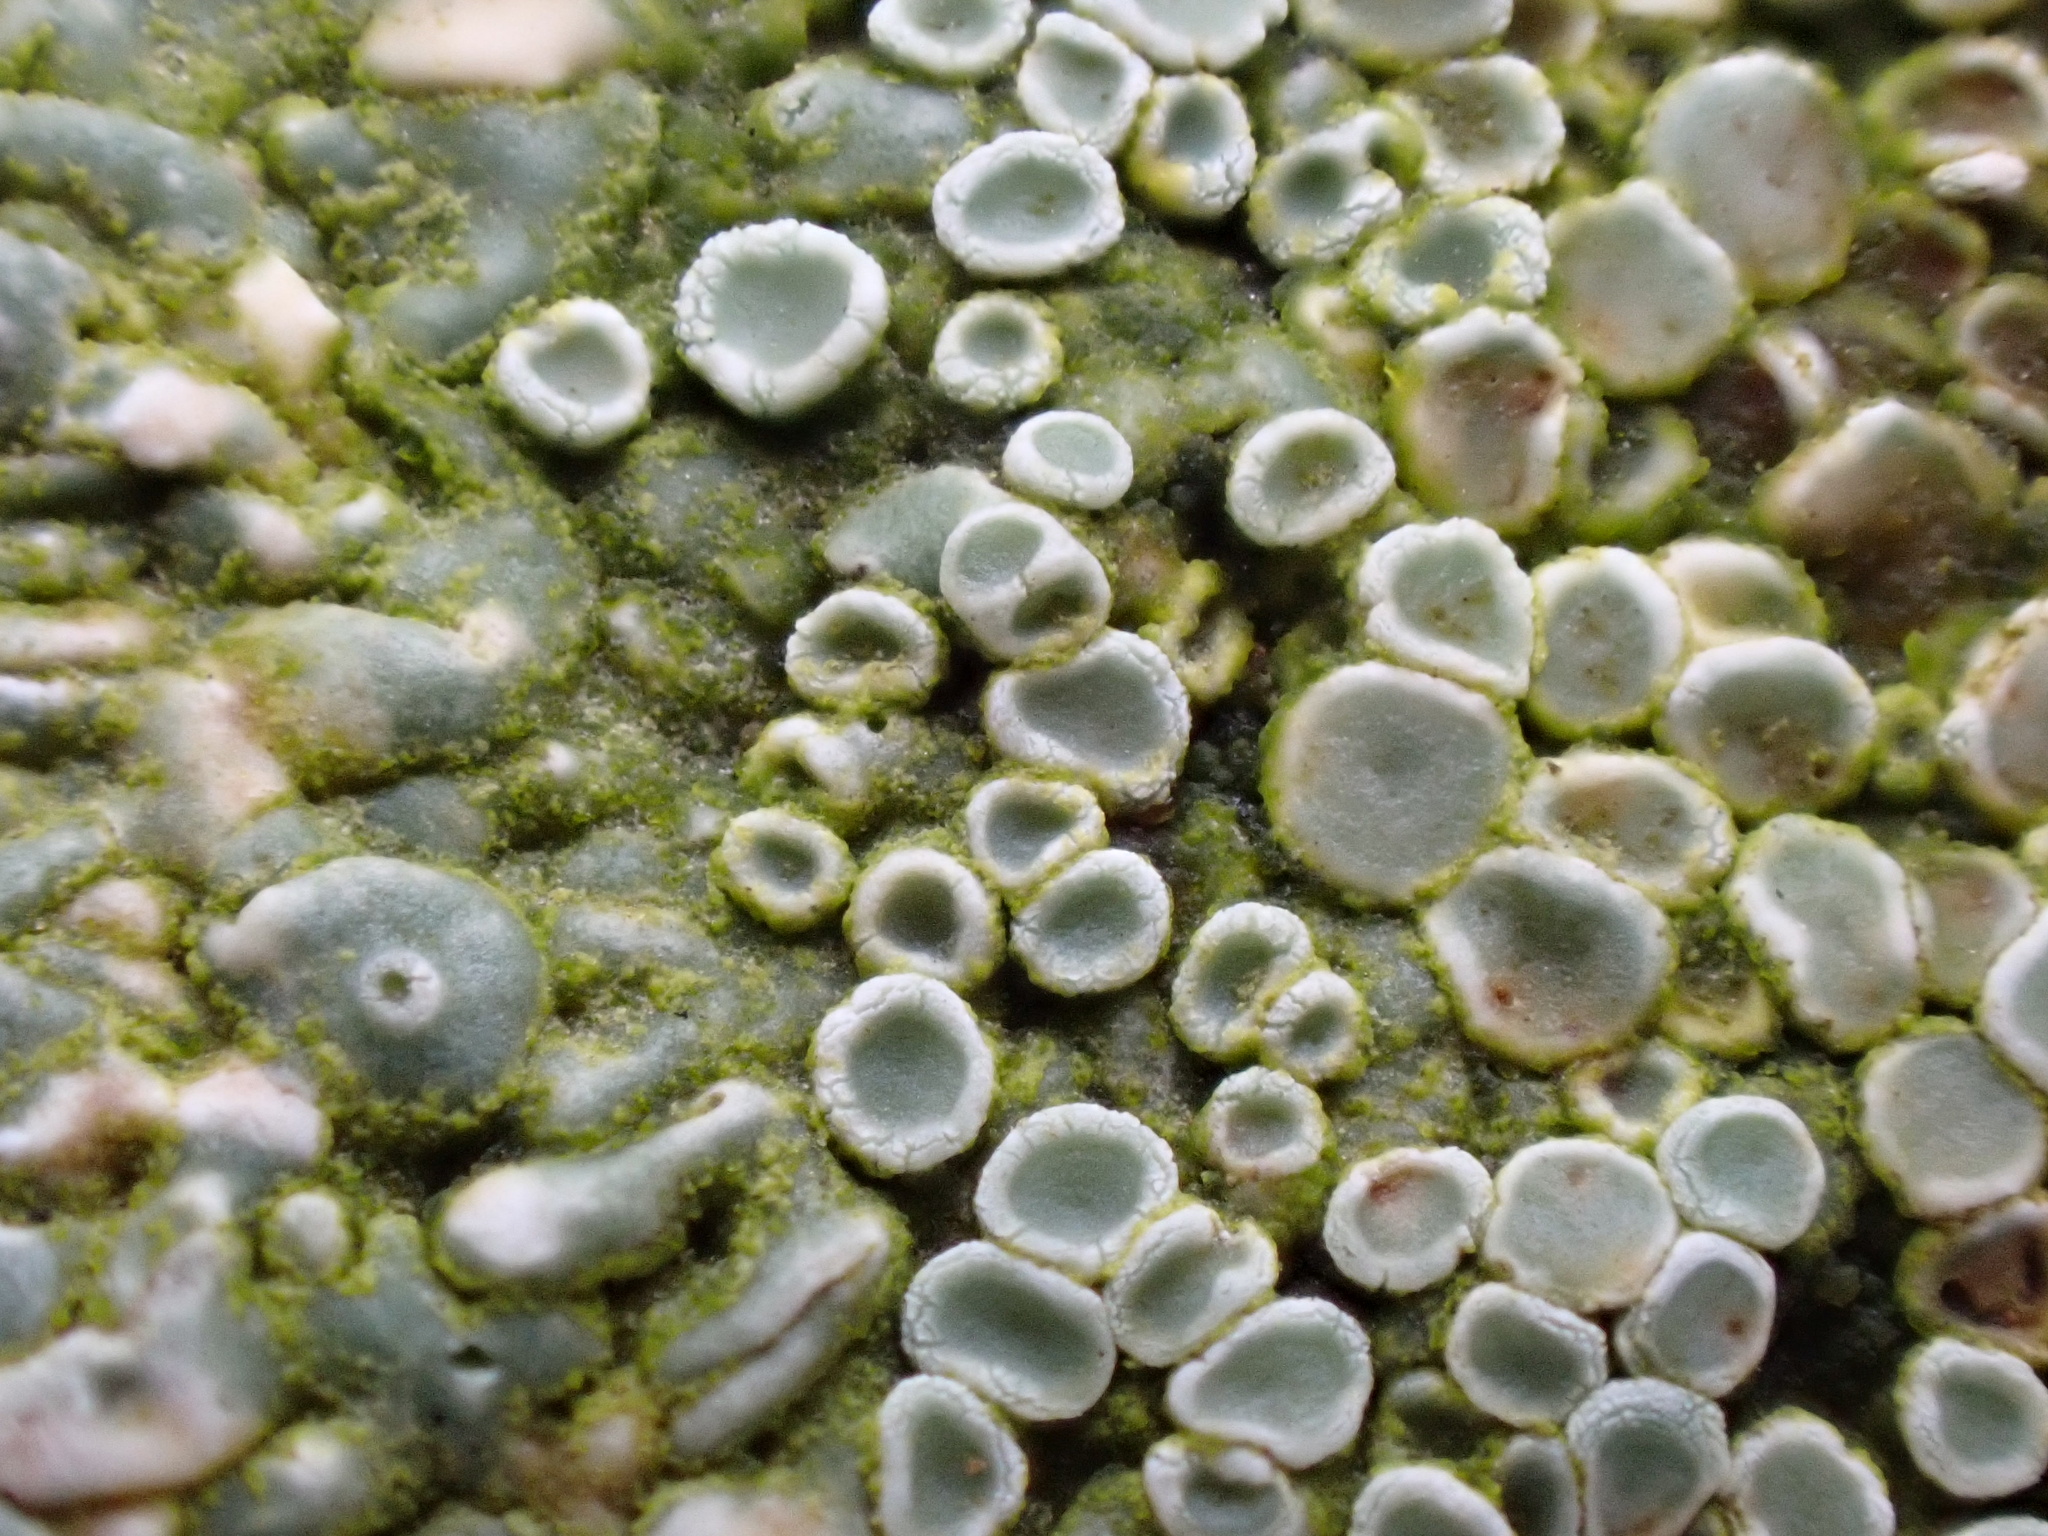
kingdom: Fungi
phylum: Ascomycota
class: Lecanoromycetes
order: Lecanorales
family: Lecanoraceae
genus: Protoparmeliopsis
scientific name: Protoparmeliopsis muralis
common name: Stonewall rim lichen
